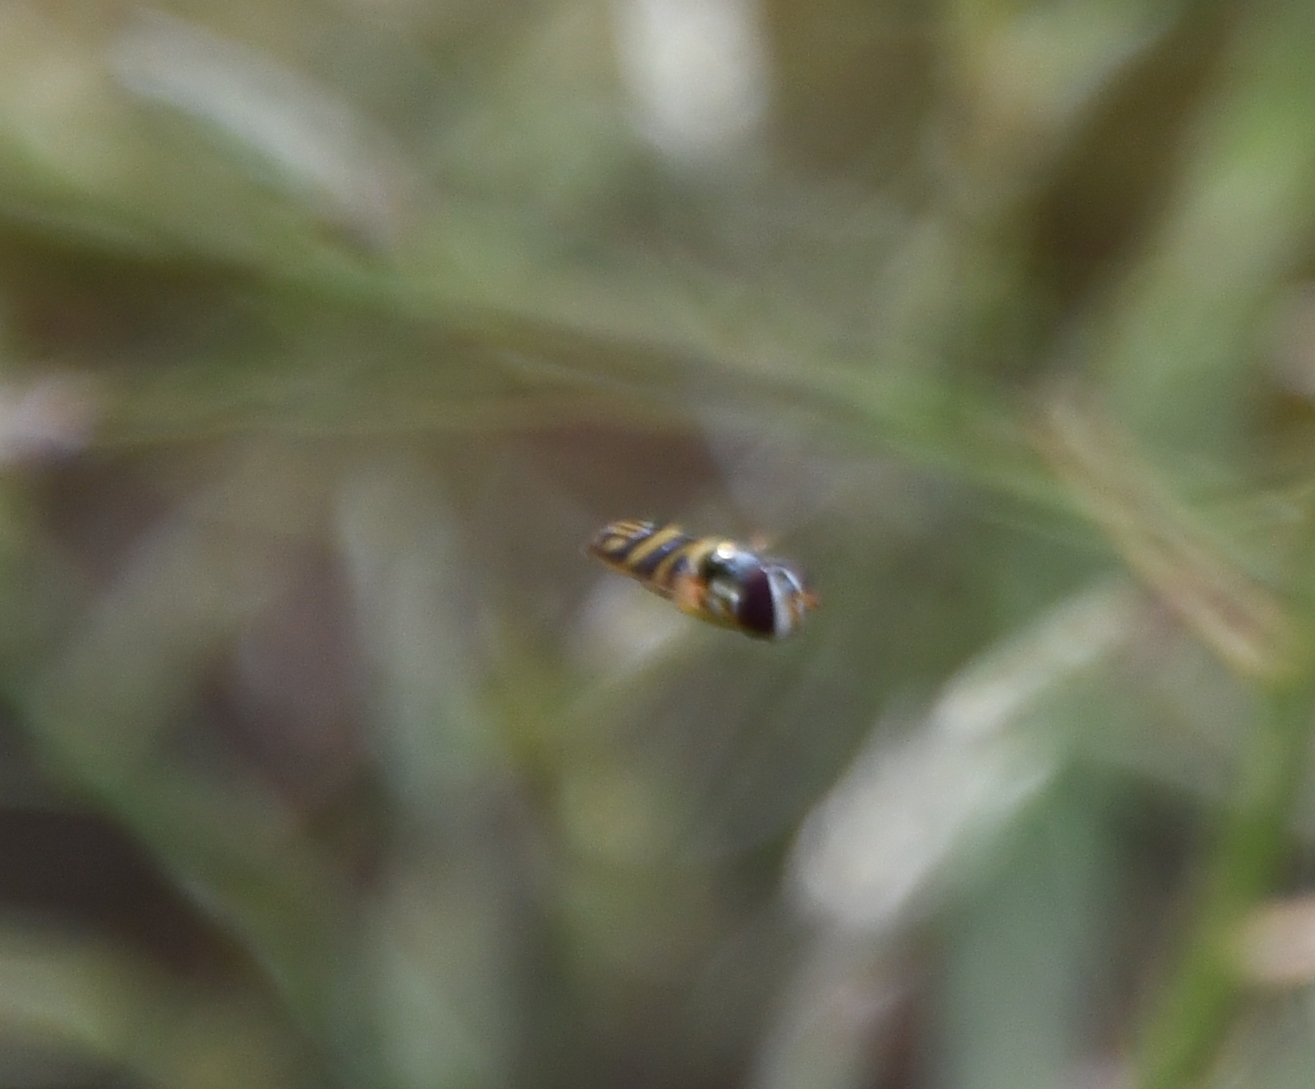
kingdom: Animalia
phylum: Arthropoda
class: Insecta
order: Diptera
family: Syrphidae
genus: Allograpta
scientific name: Allograpta
